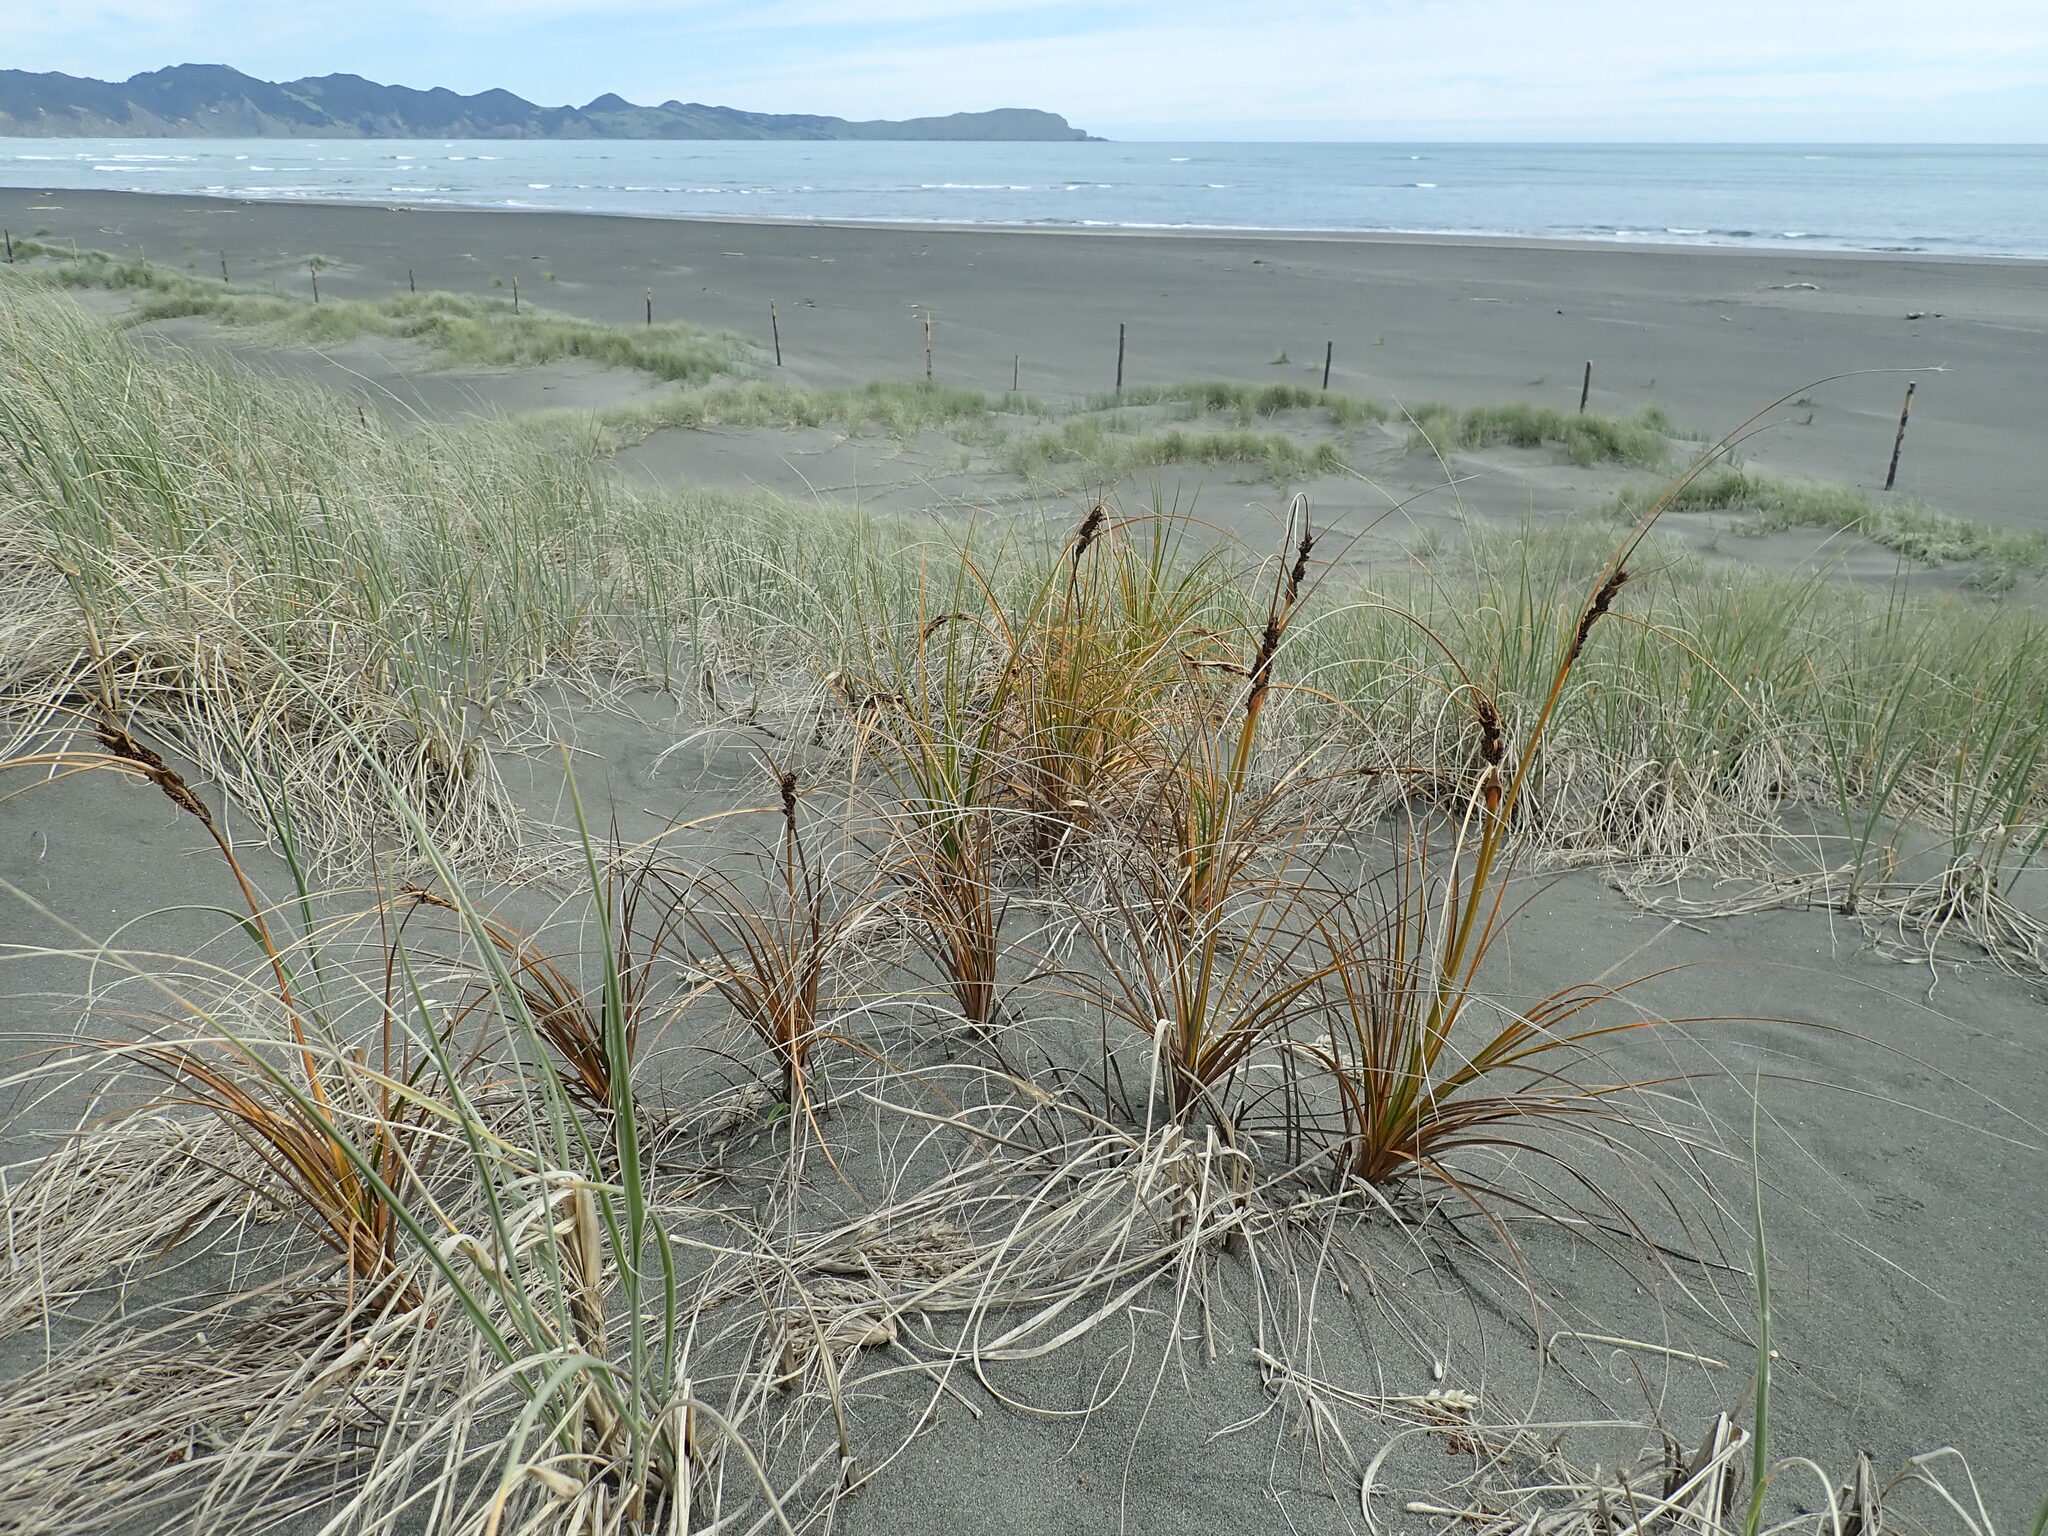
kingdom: Plantae
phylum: Tracheophyta
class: Liliopsida
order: Poales
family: Cyperaceae
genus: Ficinia
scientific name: Ficinia spiralis
